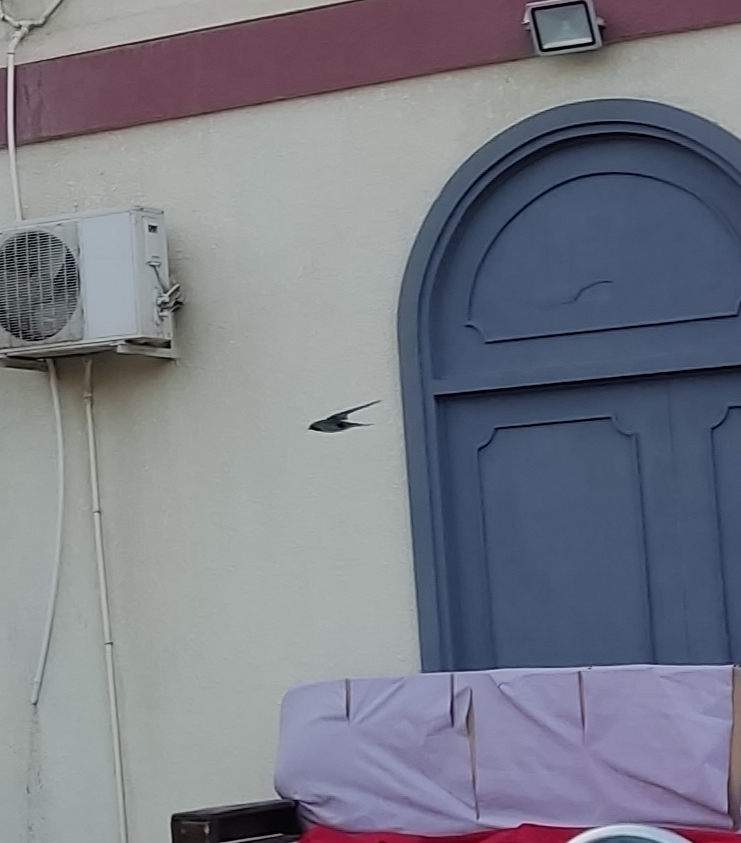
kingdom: Animalia
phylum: Chordata
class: Aves
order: Passeriformes
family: Hirundinidae
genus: Hirundo
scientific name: Hirundo rustica
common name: Barn swallow
